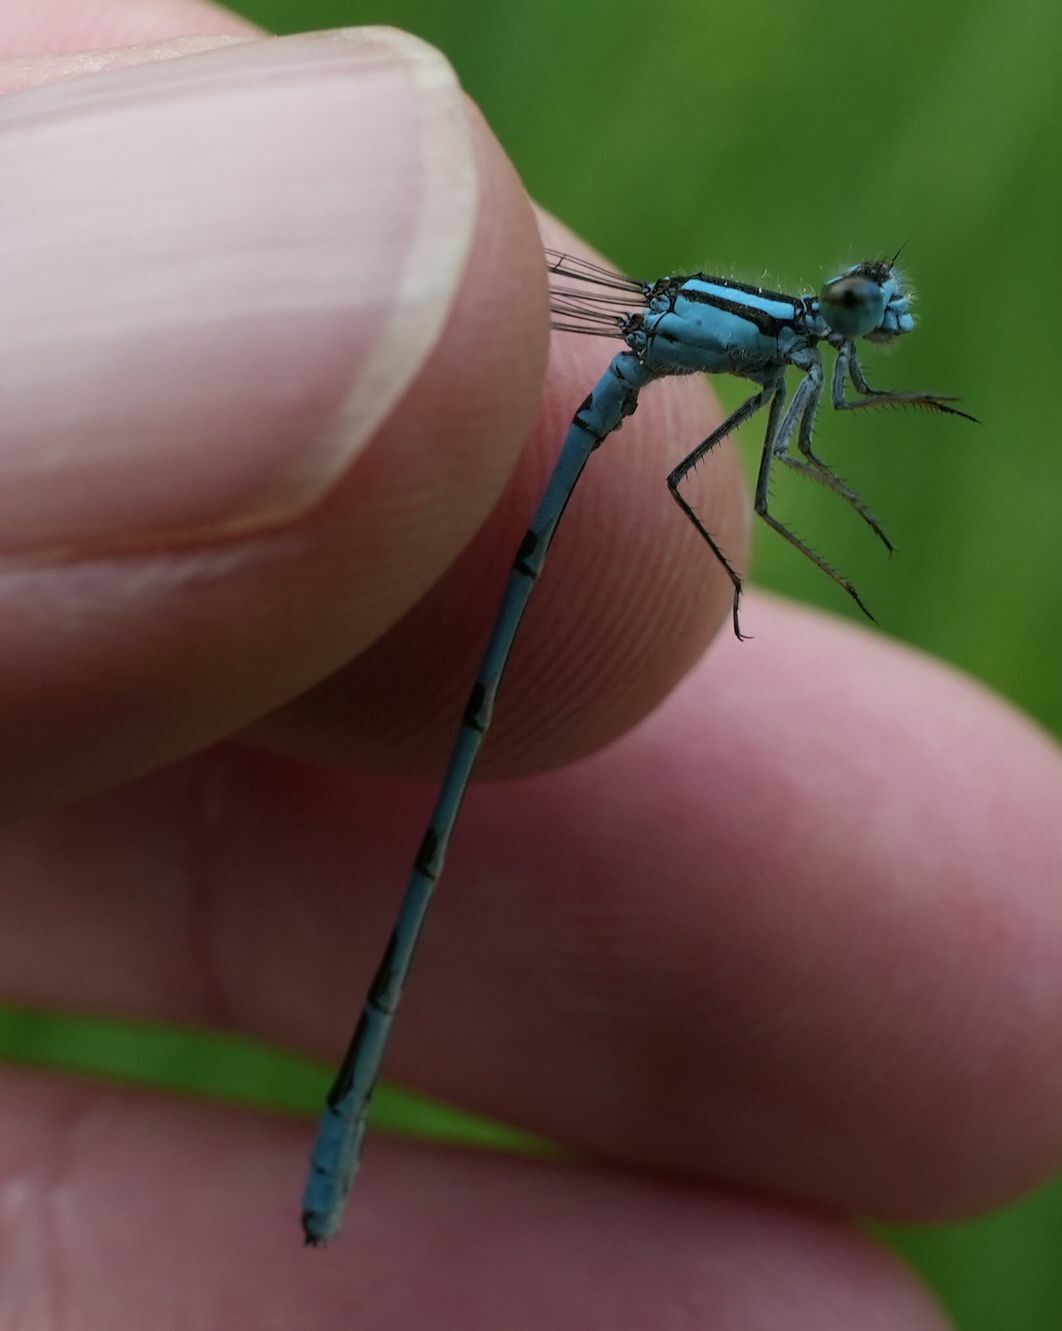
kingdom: Animalia
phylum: Arthropoda
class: Insecta
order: Odonata
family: Coenagrionidae
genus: Enallagma
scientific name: Enallagma ebrium
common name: Marsh bluet
